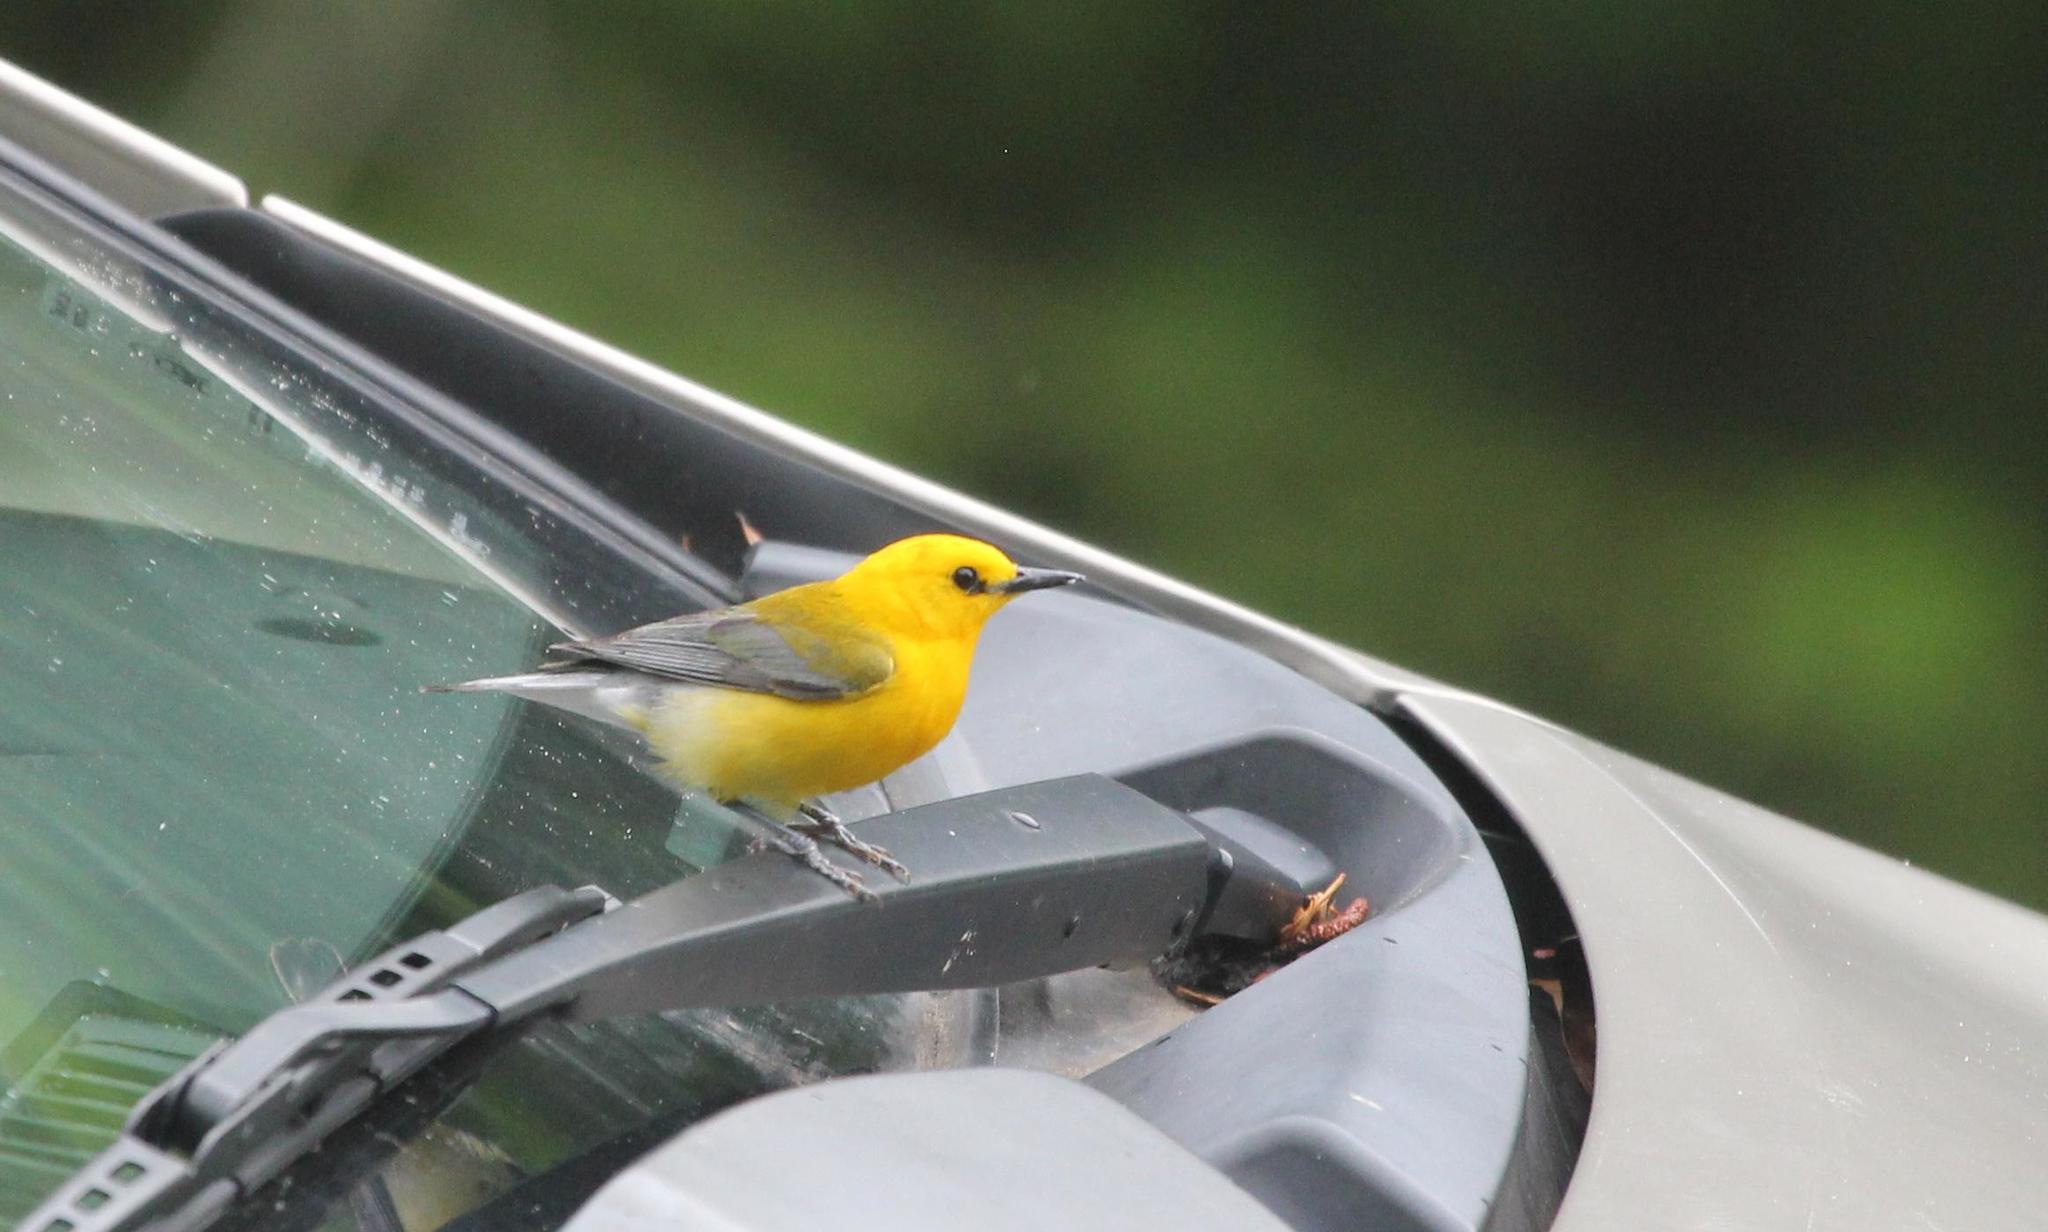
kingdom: Animalia
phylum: Chordata
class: Aves
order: Passeriformes
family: Parulidae
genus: Protonotaria
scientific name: Protonotaria citrea
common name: Prothonotary warbler
